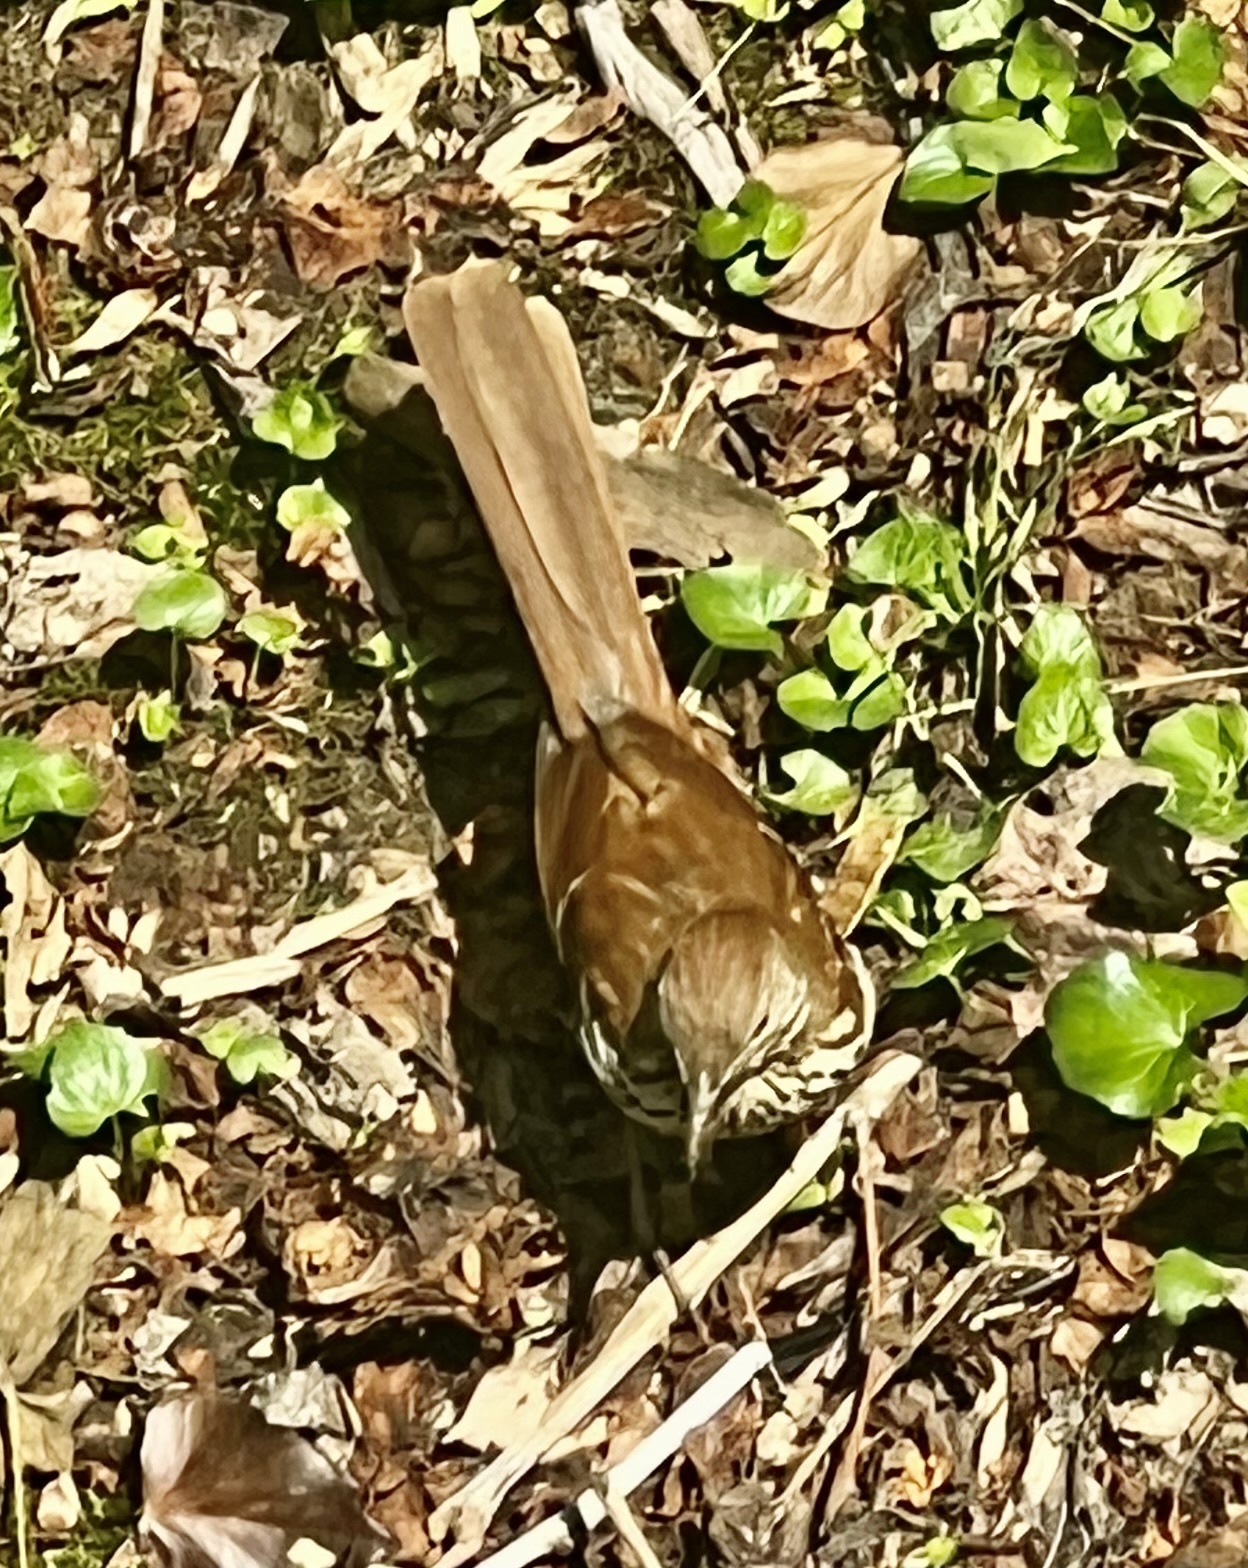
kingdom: Animalia
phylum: Chordata
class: Aves
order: Passeriformes
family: Mimidae
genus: Toxostoma
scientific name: Toxostoma rufum
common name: Brown thrasher
